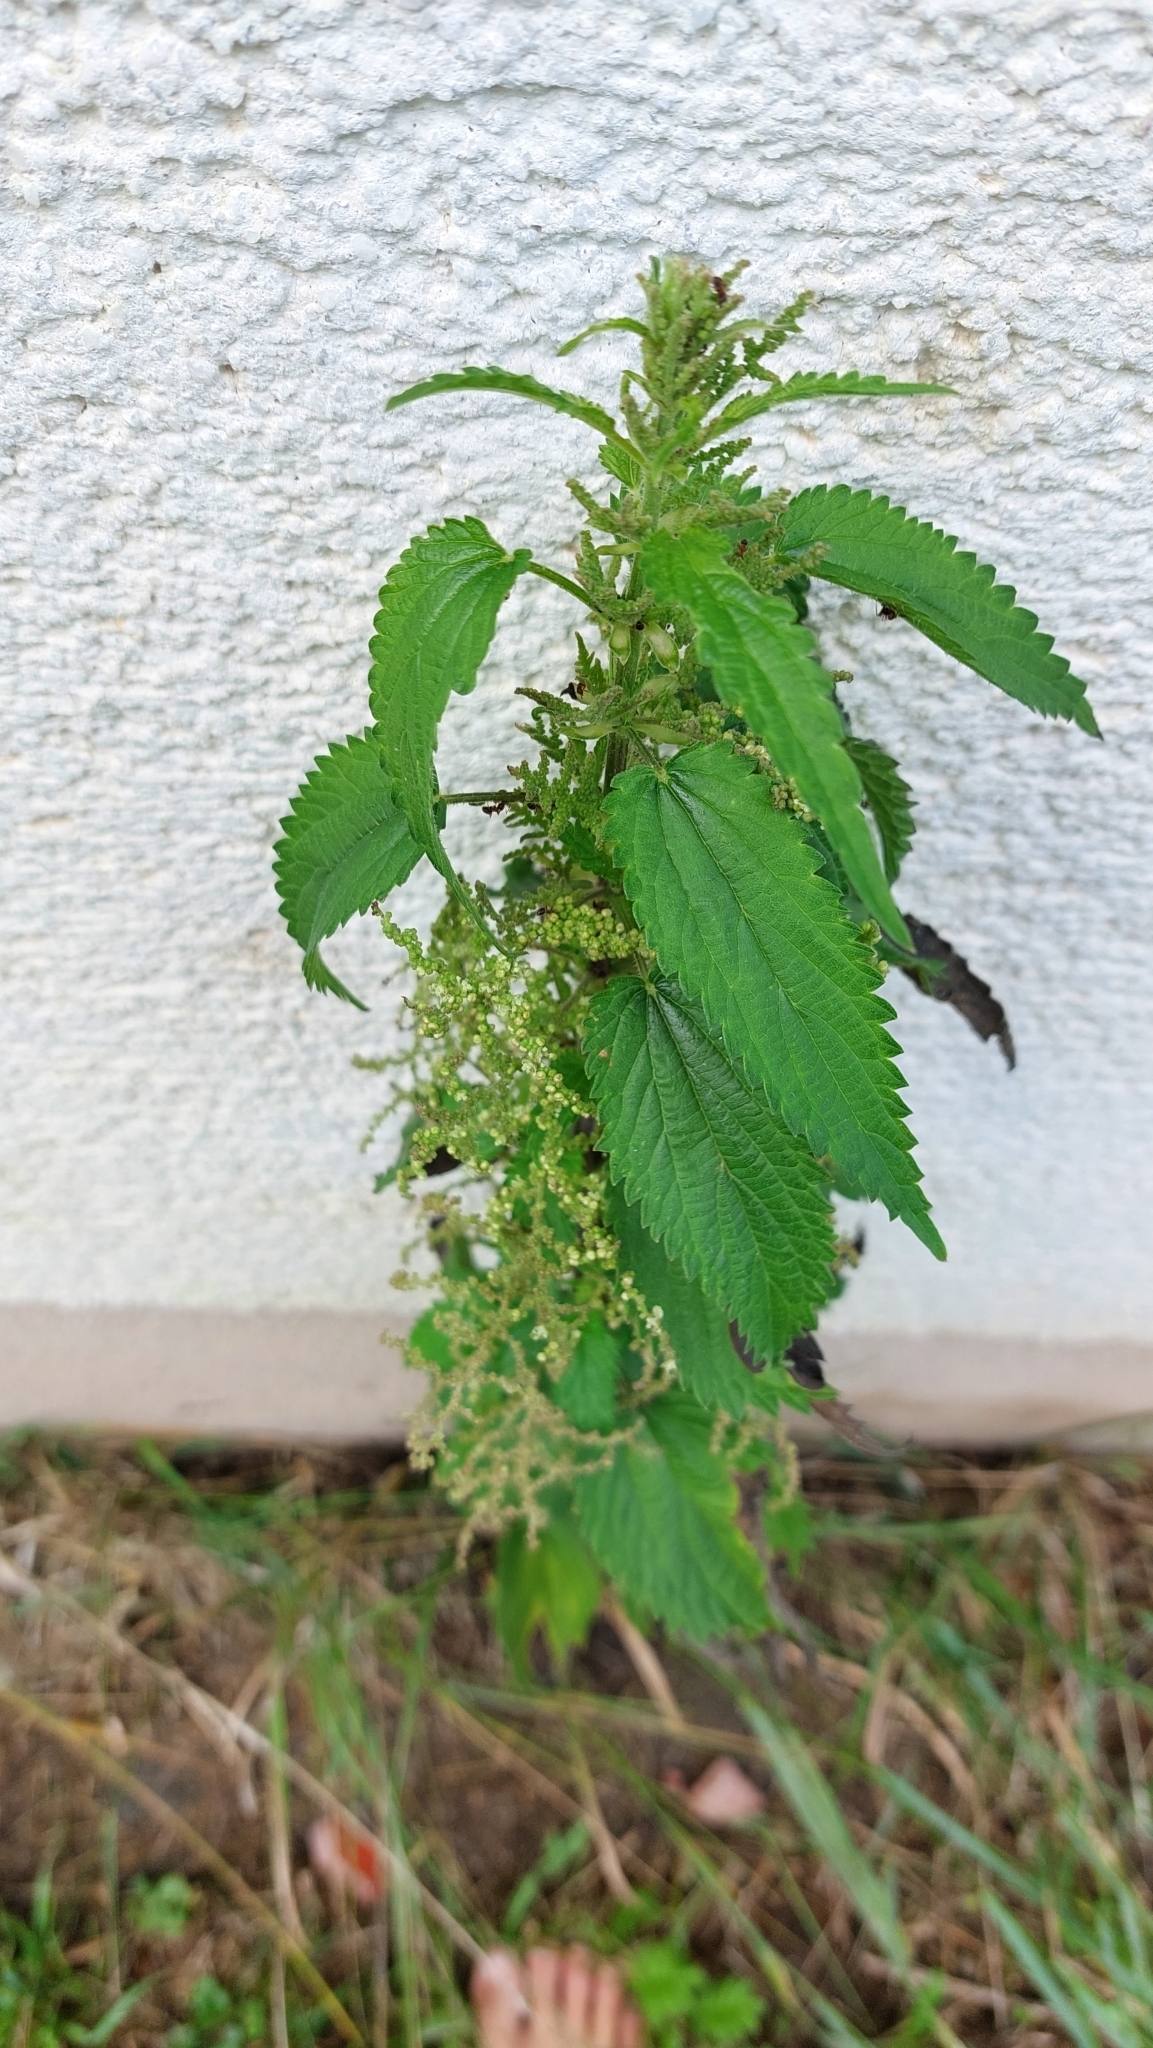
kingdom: Plantae
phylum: Tracheophyta
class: Magnoliopsida
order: Rosales
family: Urticaceae
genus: Urtica
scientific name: Urtica dioica
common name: Common nettle
